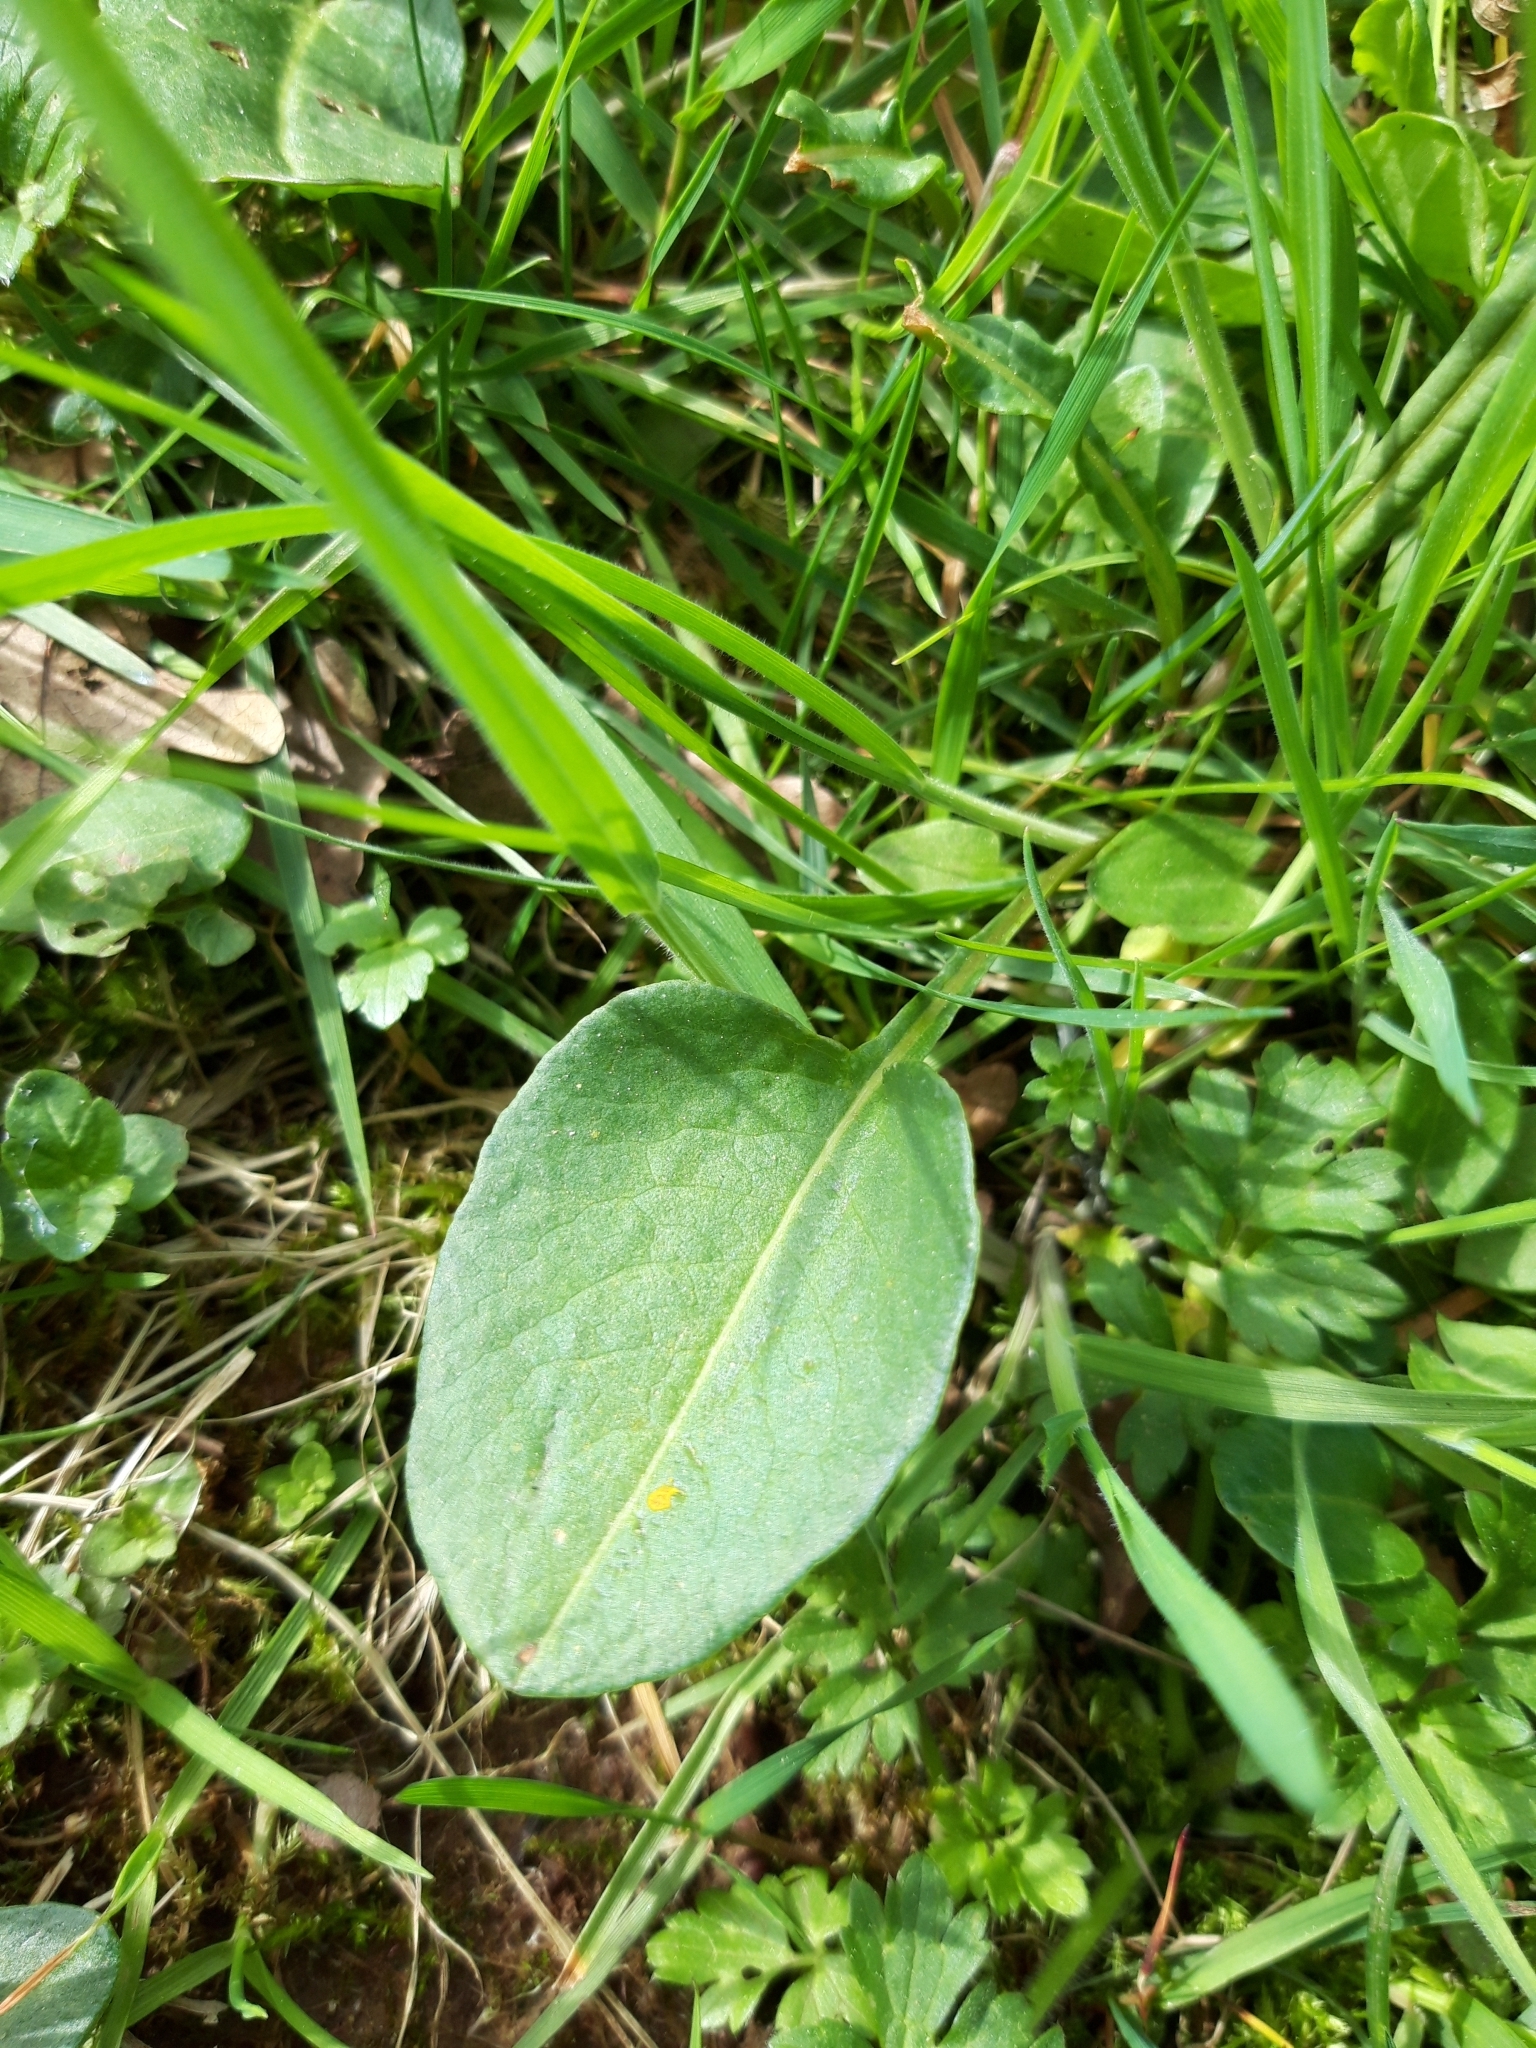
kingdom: Plantae
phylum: Tracheophyta
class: Magnoliopsida
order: Caryophyllales
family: Polygonaceae
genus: Bistorta
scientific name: Bistorta officinalis
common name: Common bistort
